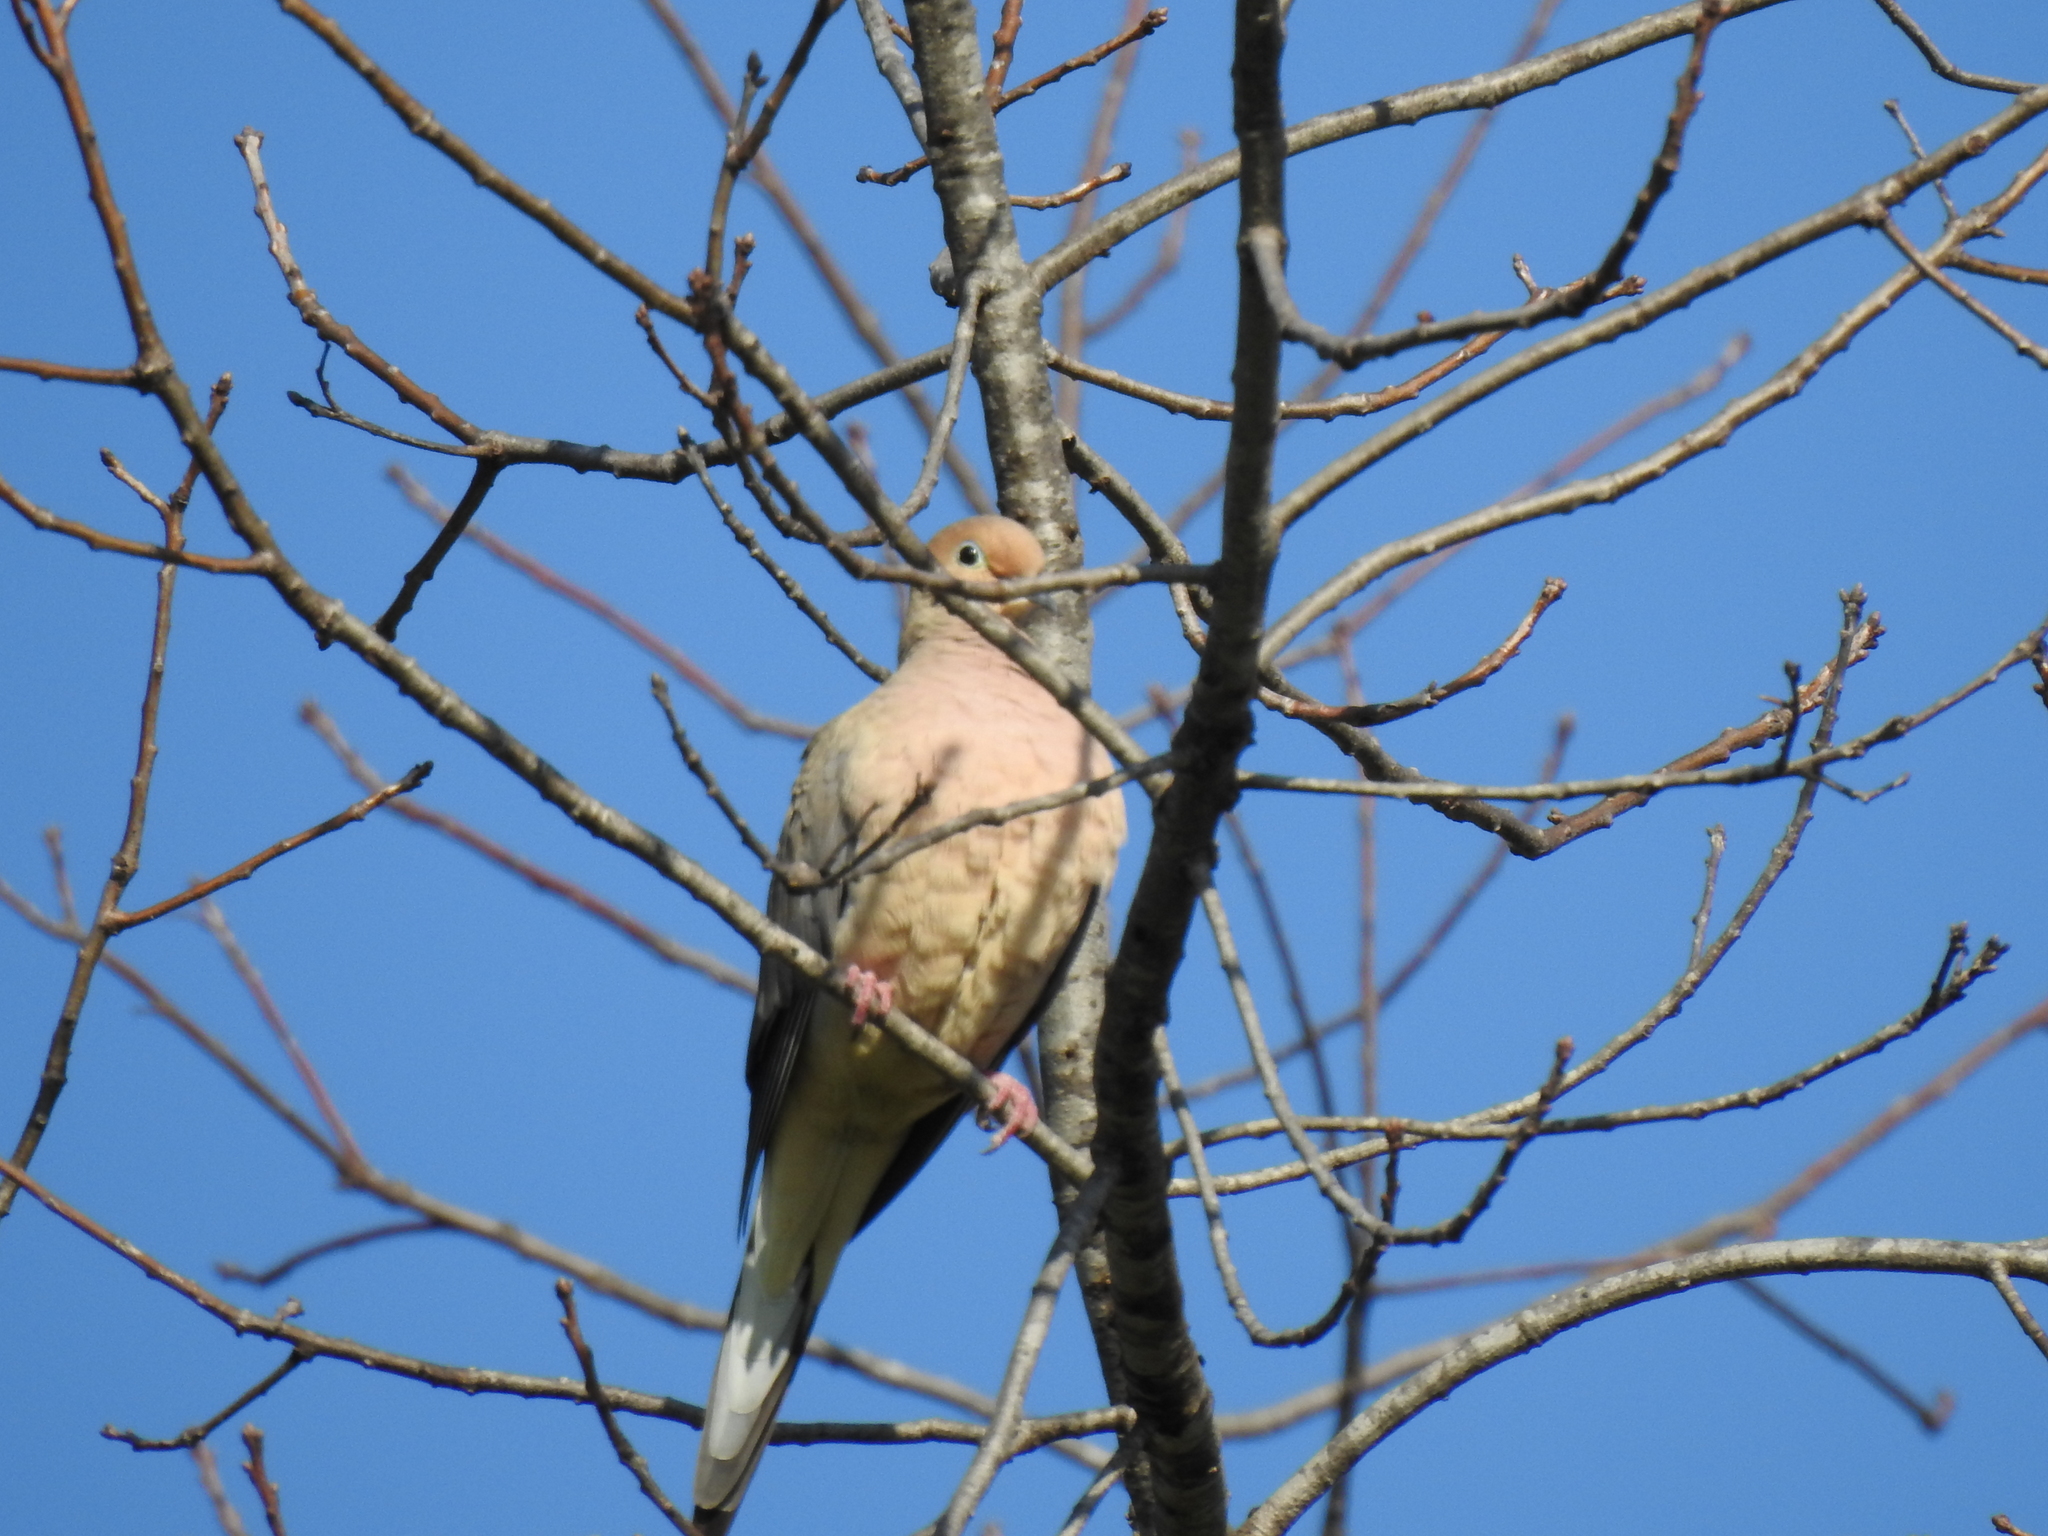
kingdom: Animalia
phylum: Chordata
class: Aves
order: Columbiformes
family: Columbidae
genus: Zenaida
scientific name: Zenaida macroura
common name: Mourning dove
